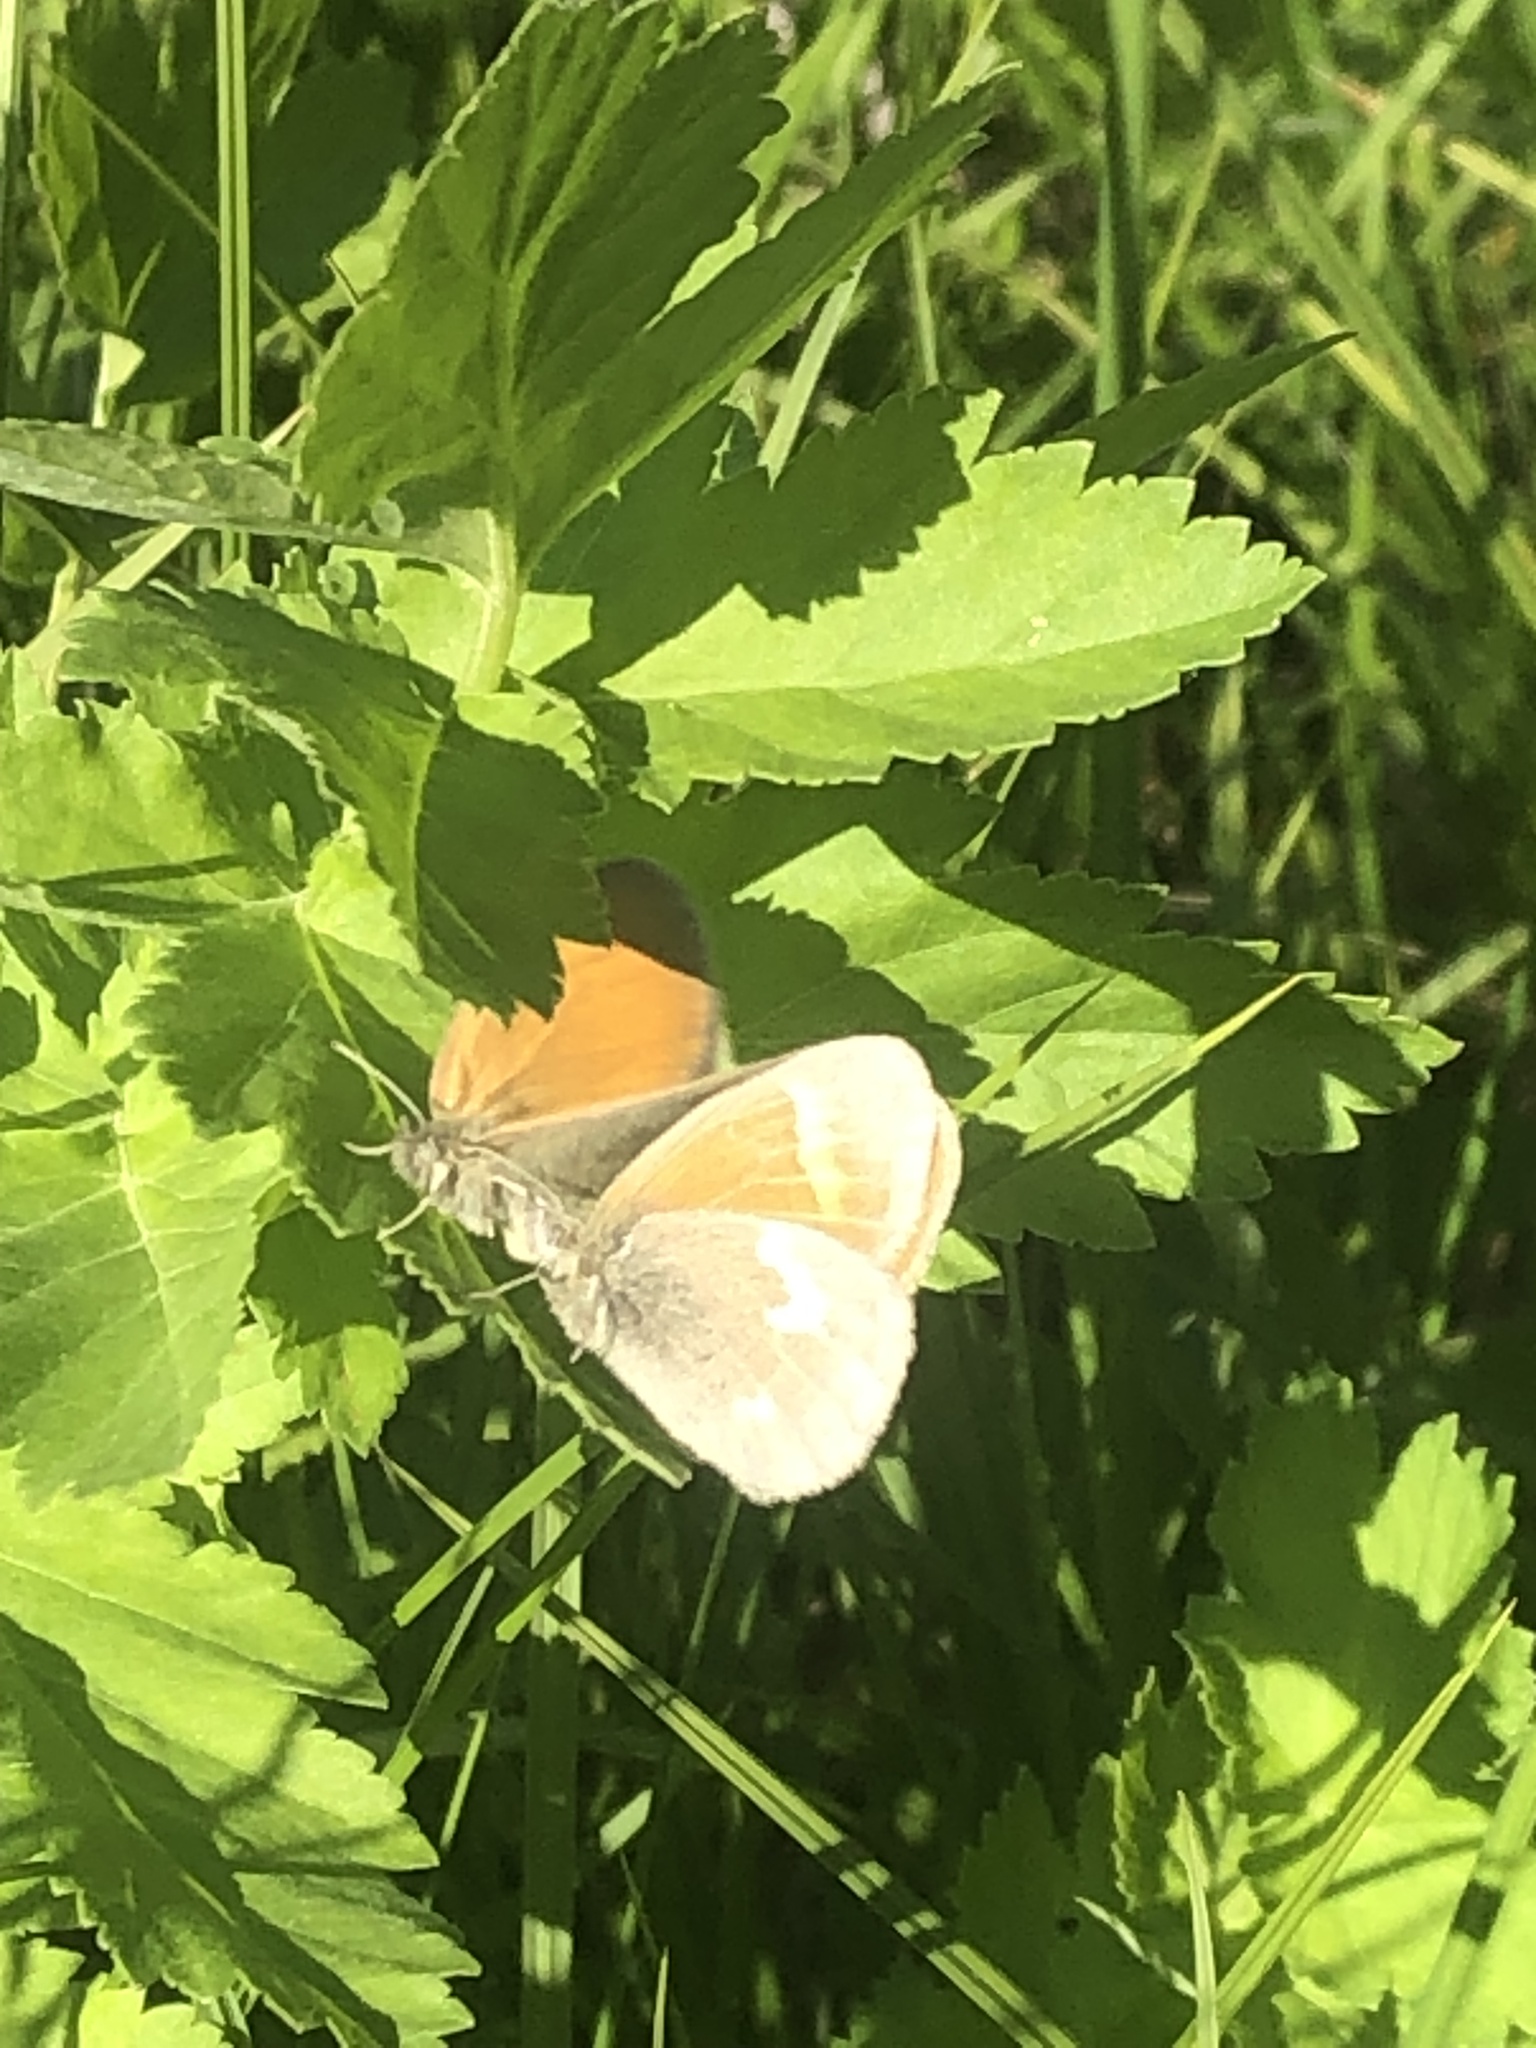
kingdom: Animalia
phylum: Arthropoda
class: Insecta
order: Lepidoptera
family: Nymphalidae
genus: Coenonympha
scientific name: Coenonympha california
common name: Common ringlet
